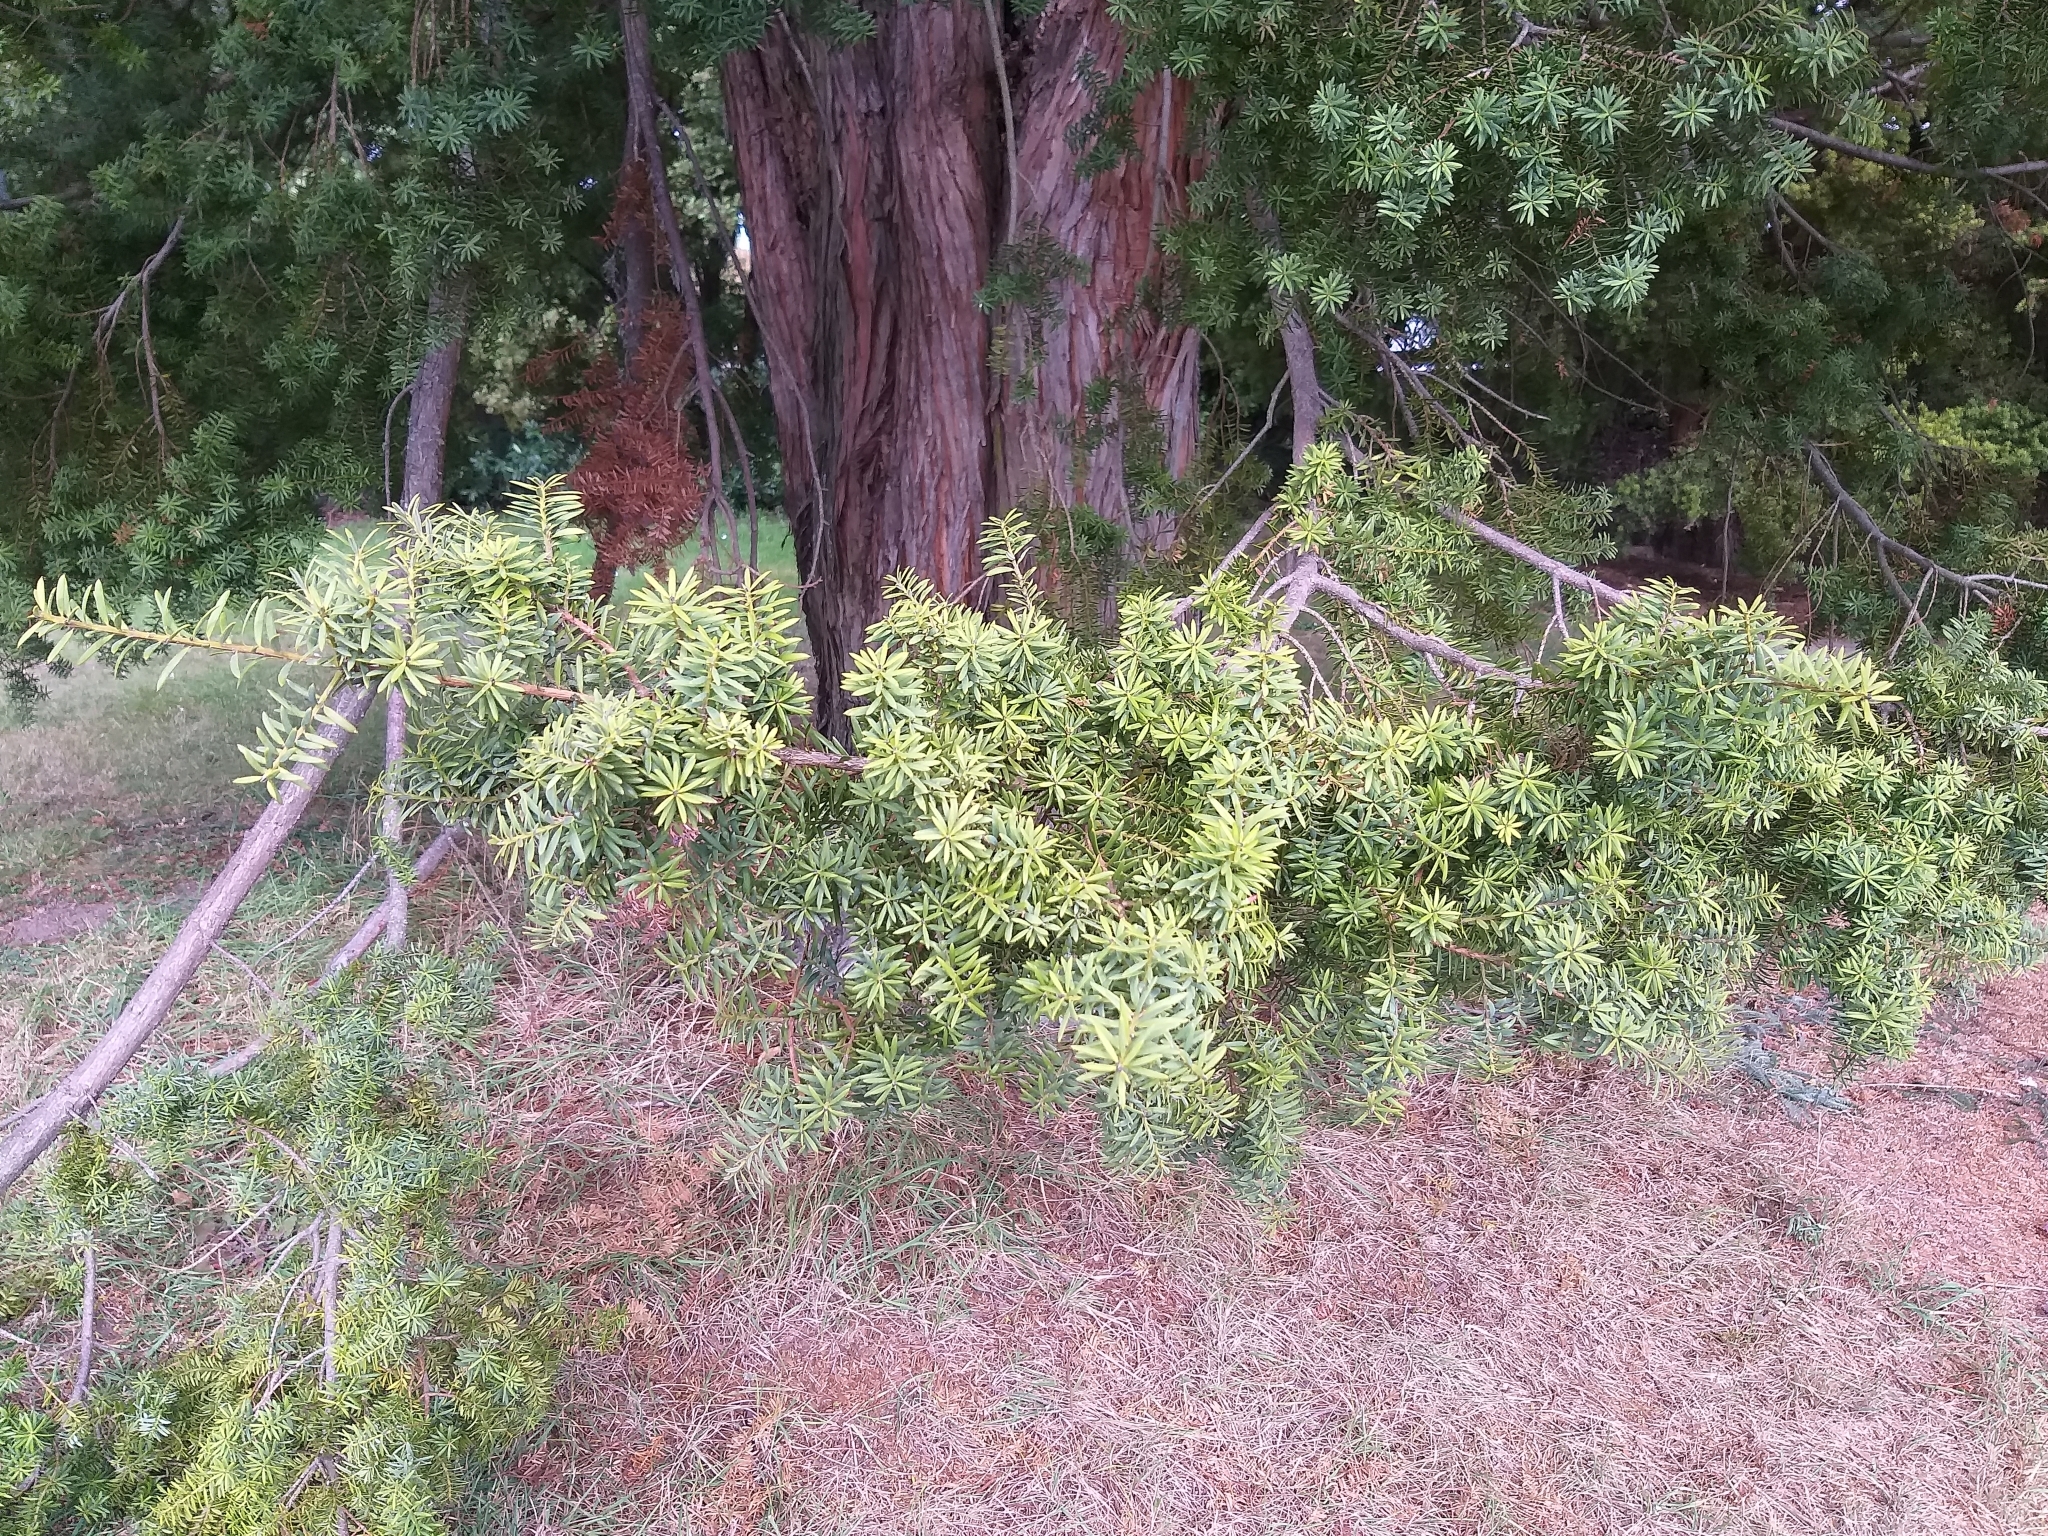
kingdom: Plantae
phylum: Tracheophyta
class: Pinopsida
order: Pinales
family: Podocarpaceae
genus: Podocarpus
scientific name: Podocarpus totara
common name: Totara
